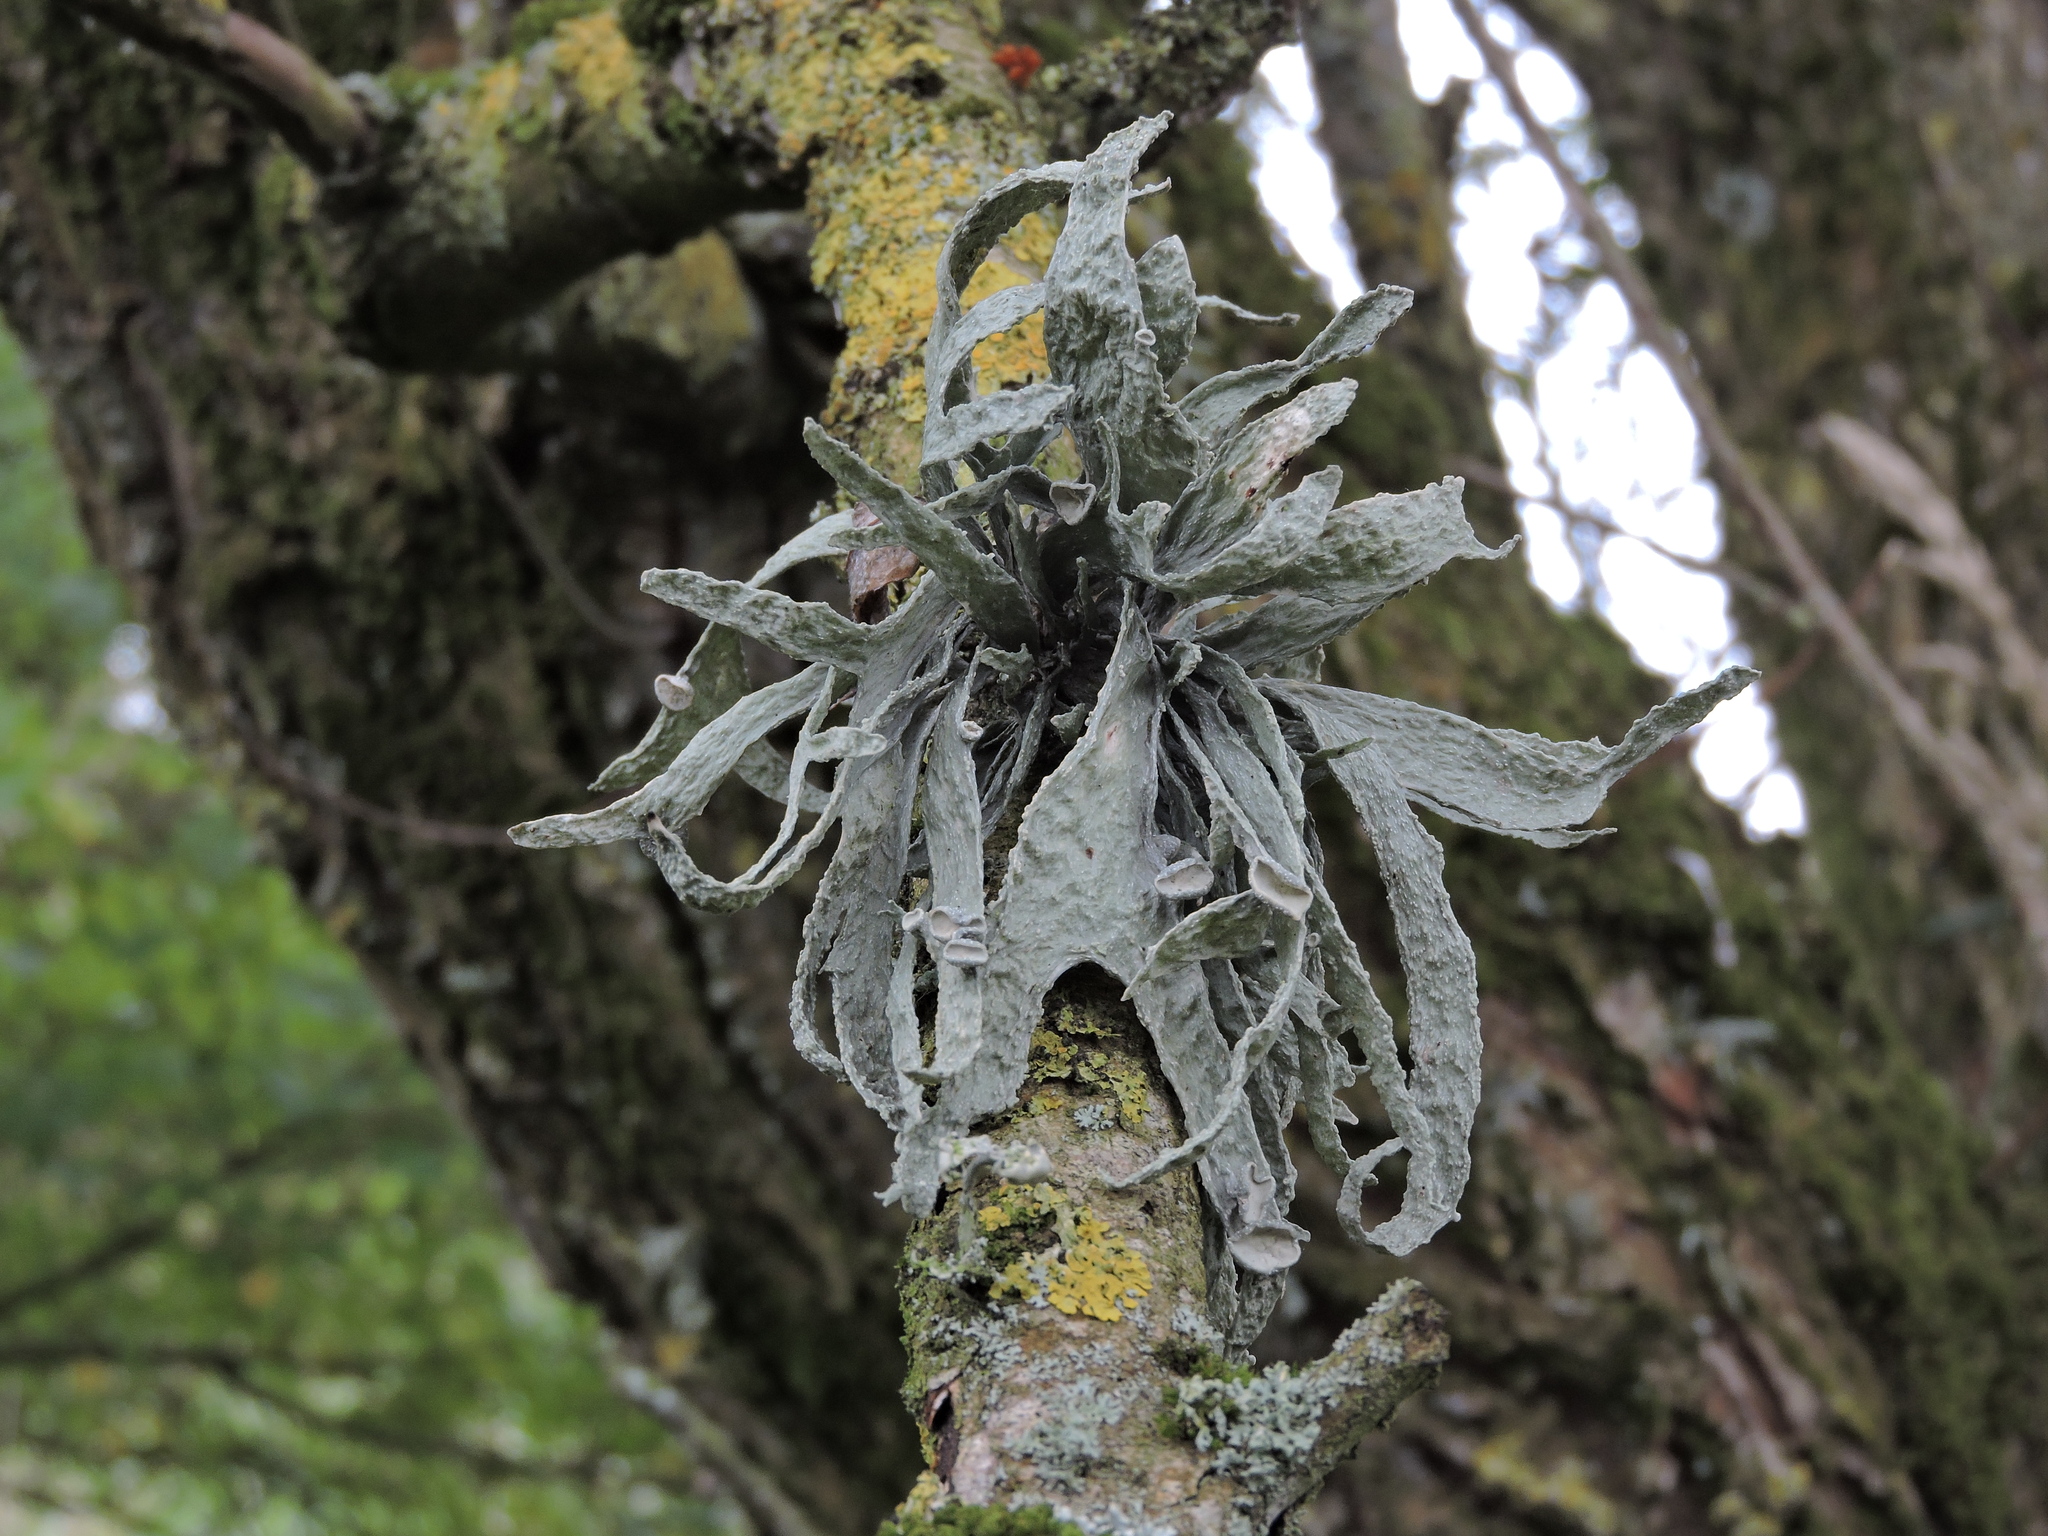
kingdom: Fungi
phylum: Ascomycota
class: Lecanoromycetes
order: Lecanorales
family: Ramalinaceae
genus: Ramalina
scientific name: Ramalina fraxinea
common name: Cartilage lichen
